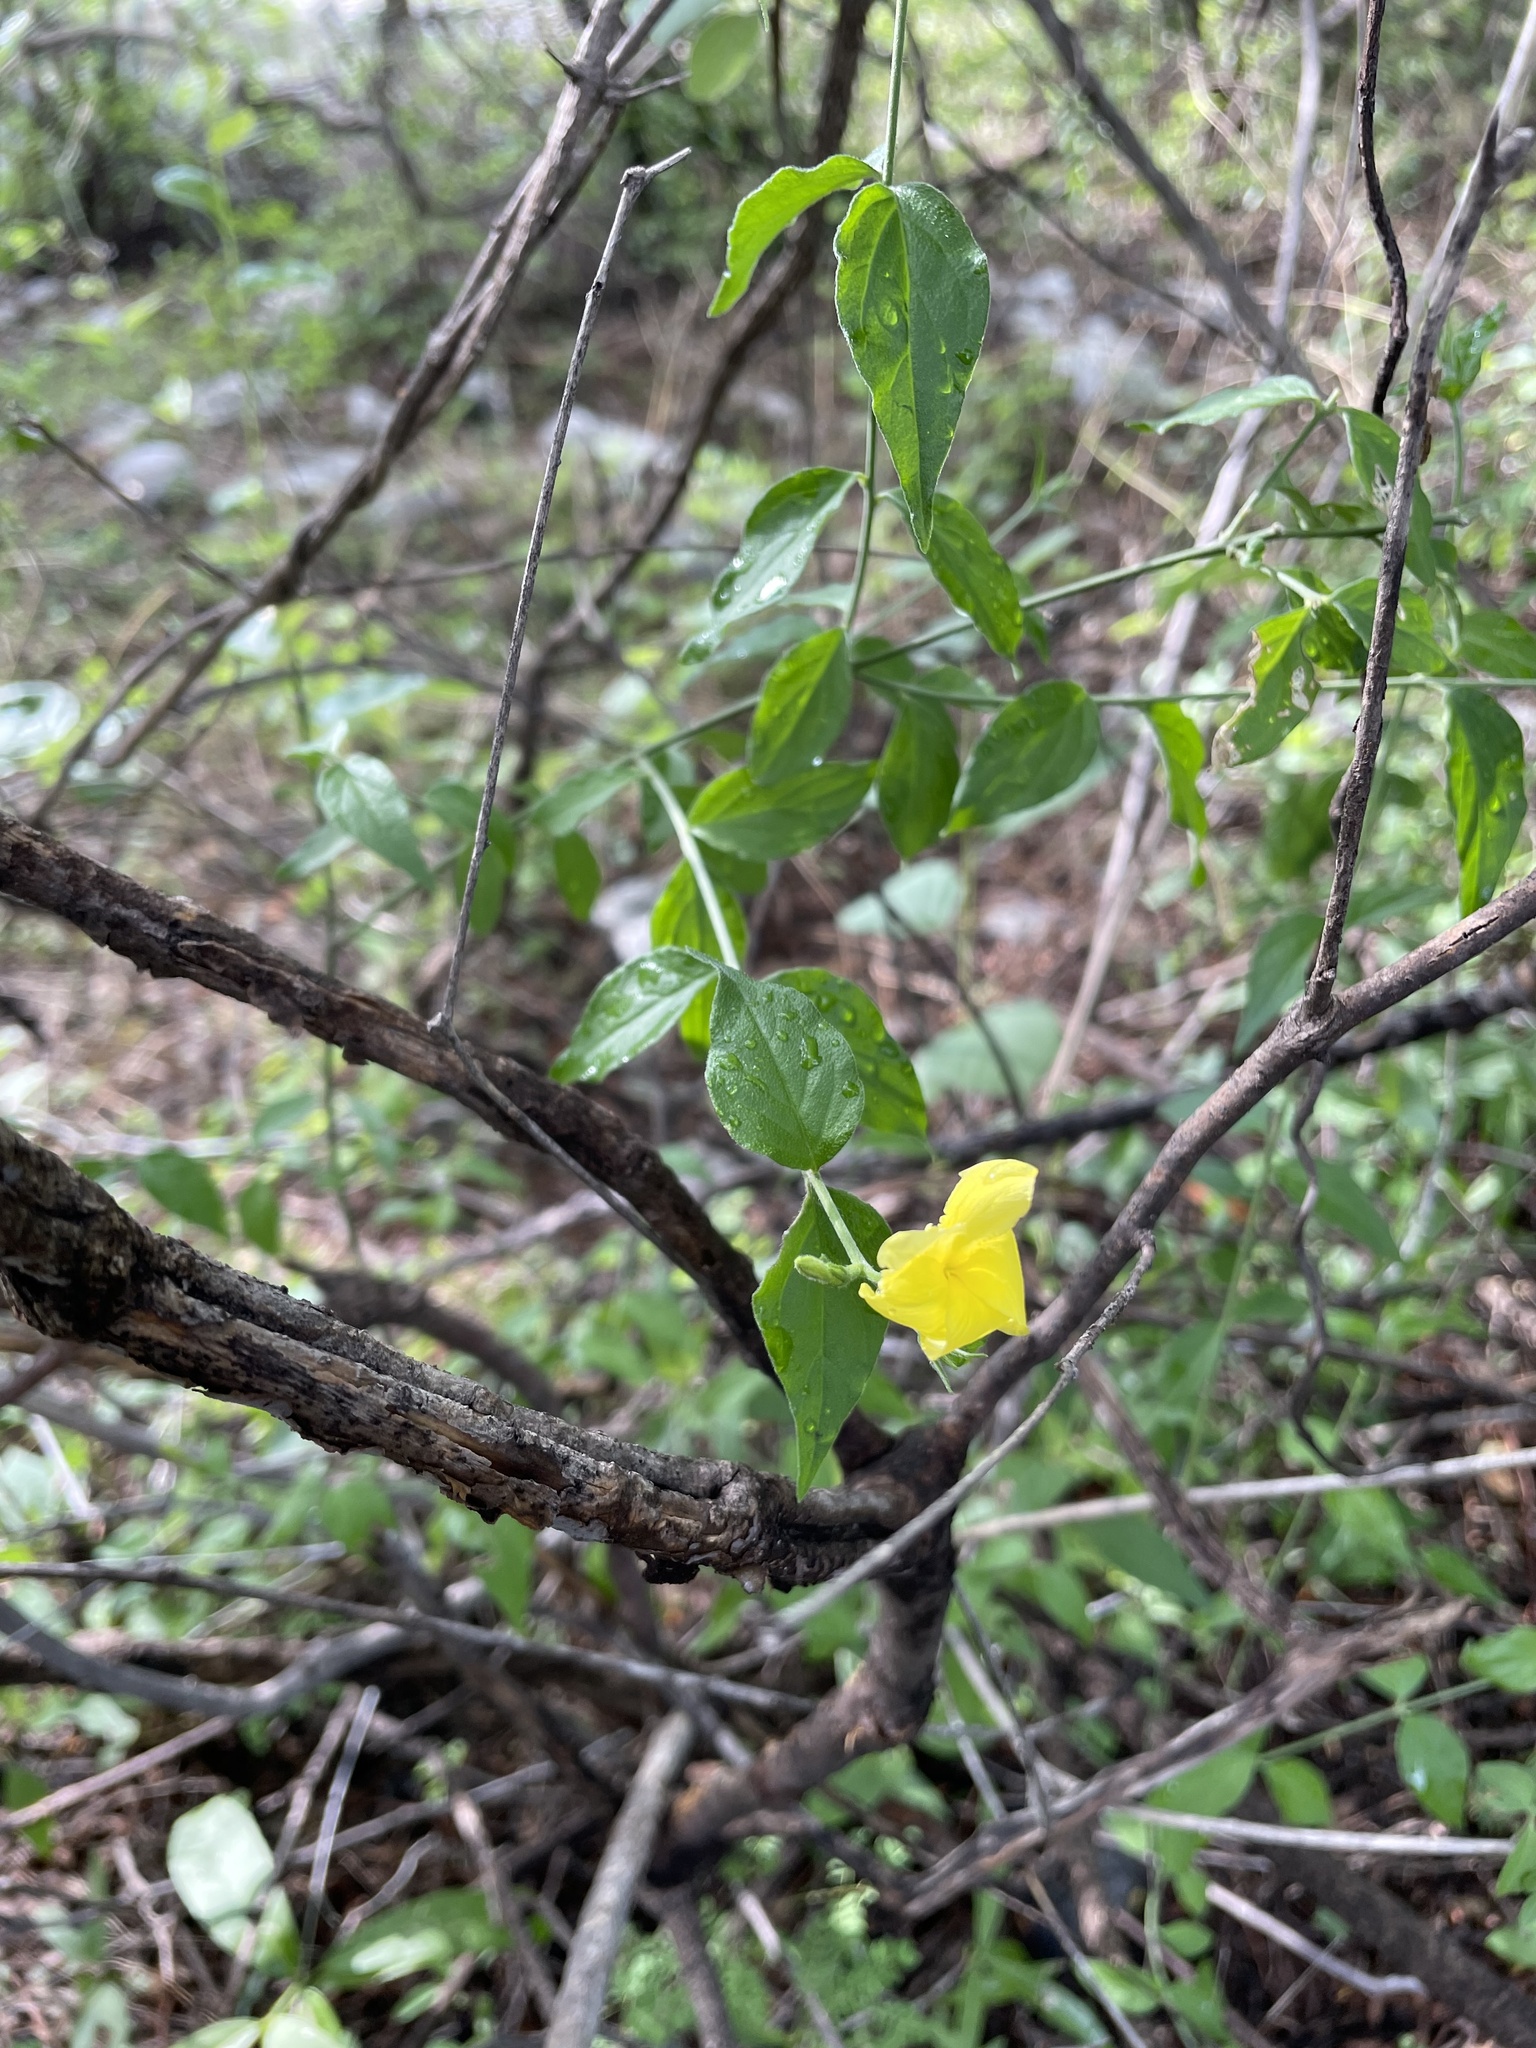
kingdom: Plantae
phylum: Tracheophyta
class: Magnoliopsida
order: Gentianales
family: Apocynaceae
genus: Haplophyton
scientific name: Haplophyton cimicidum
